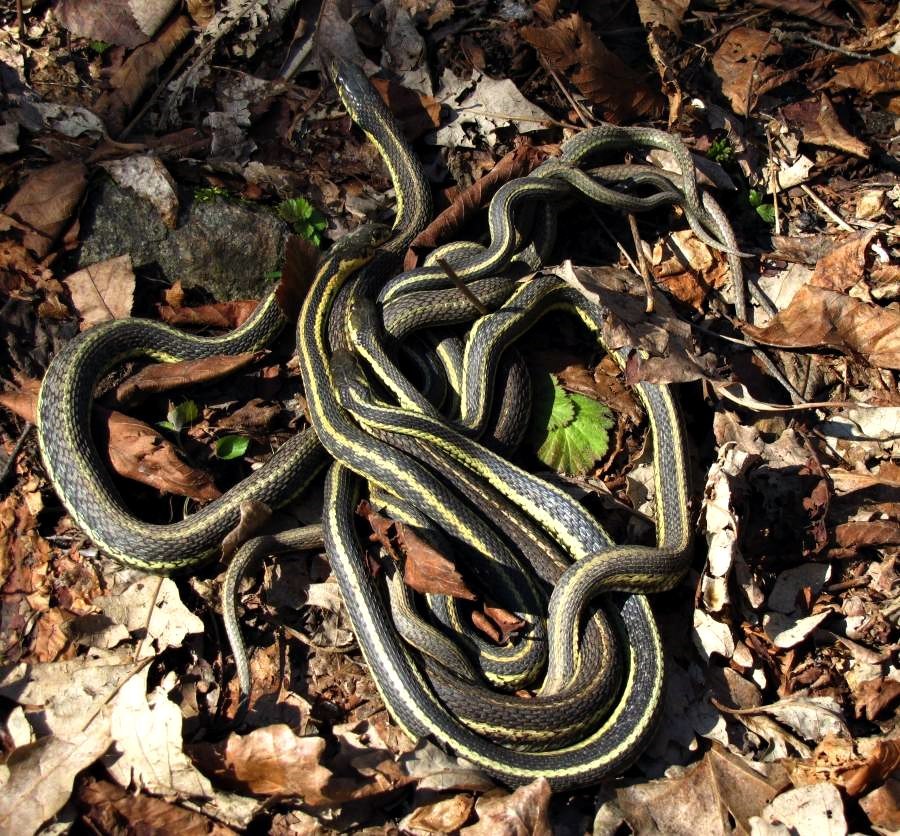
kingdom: Animalia
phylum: Chordata
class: Squamata
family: Colubridae
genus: Thamnophis
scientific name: Thamnophis sirtalis
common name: Common garter snake
